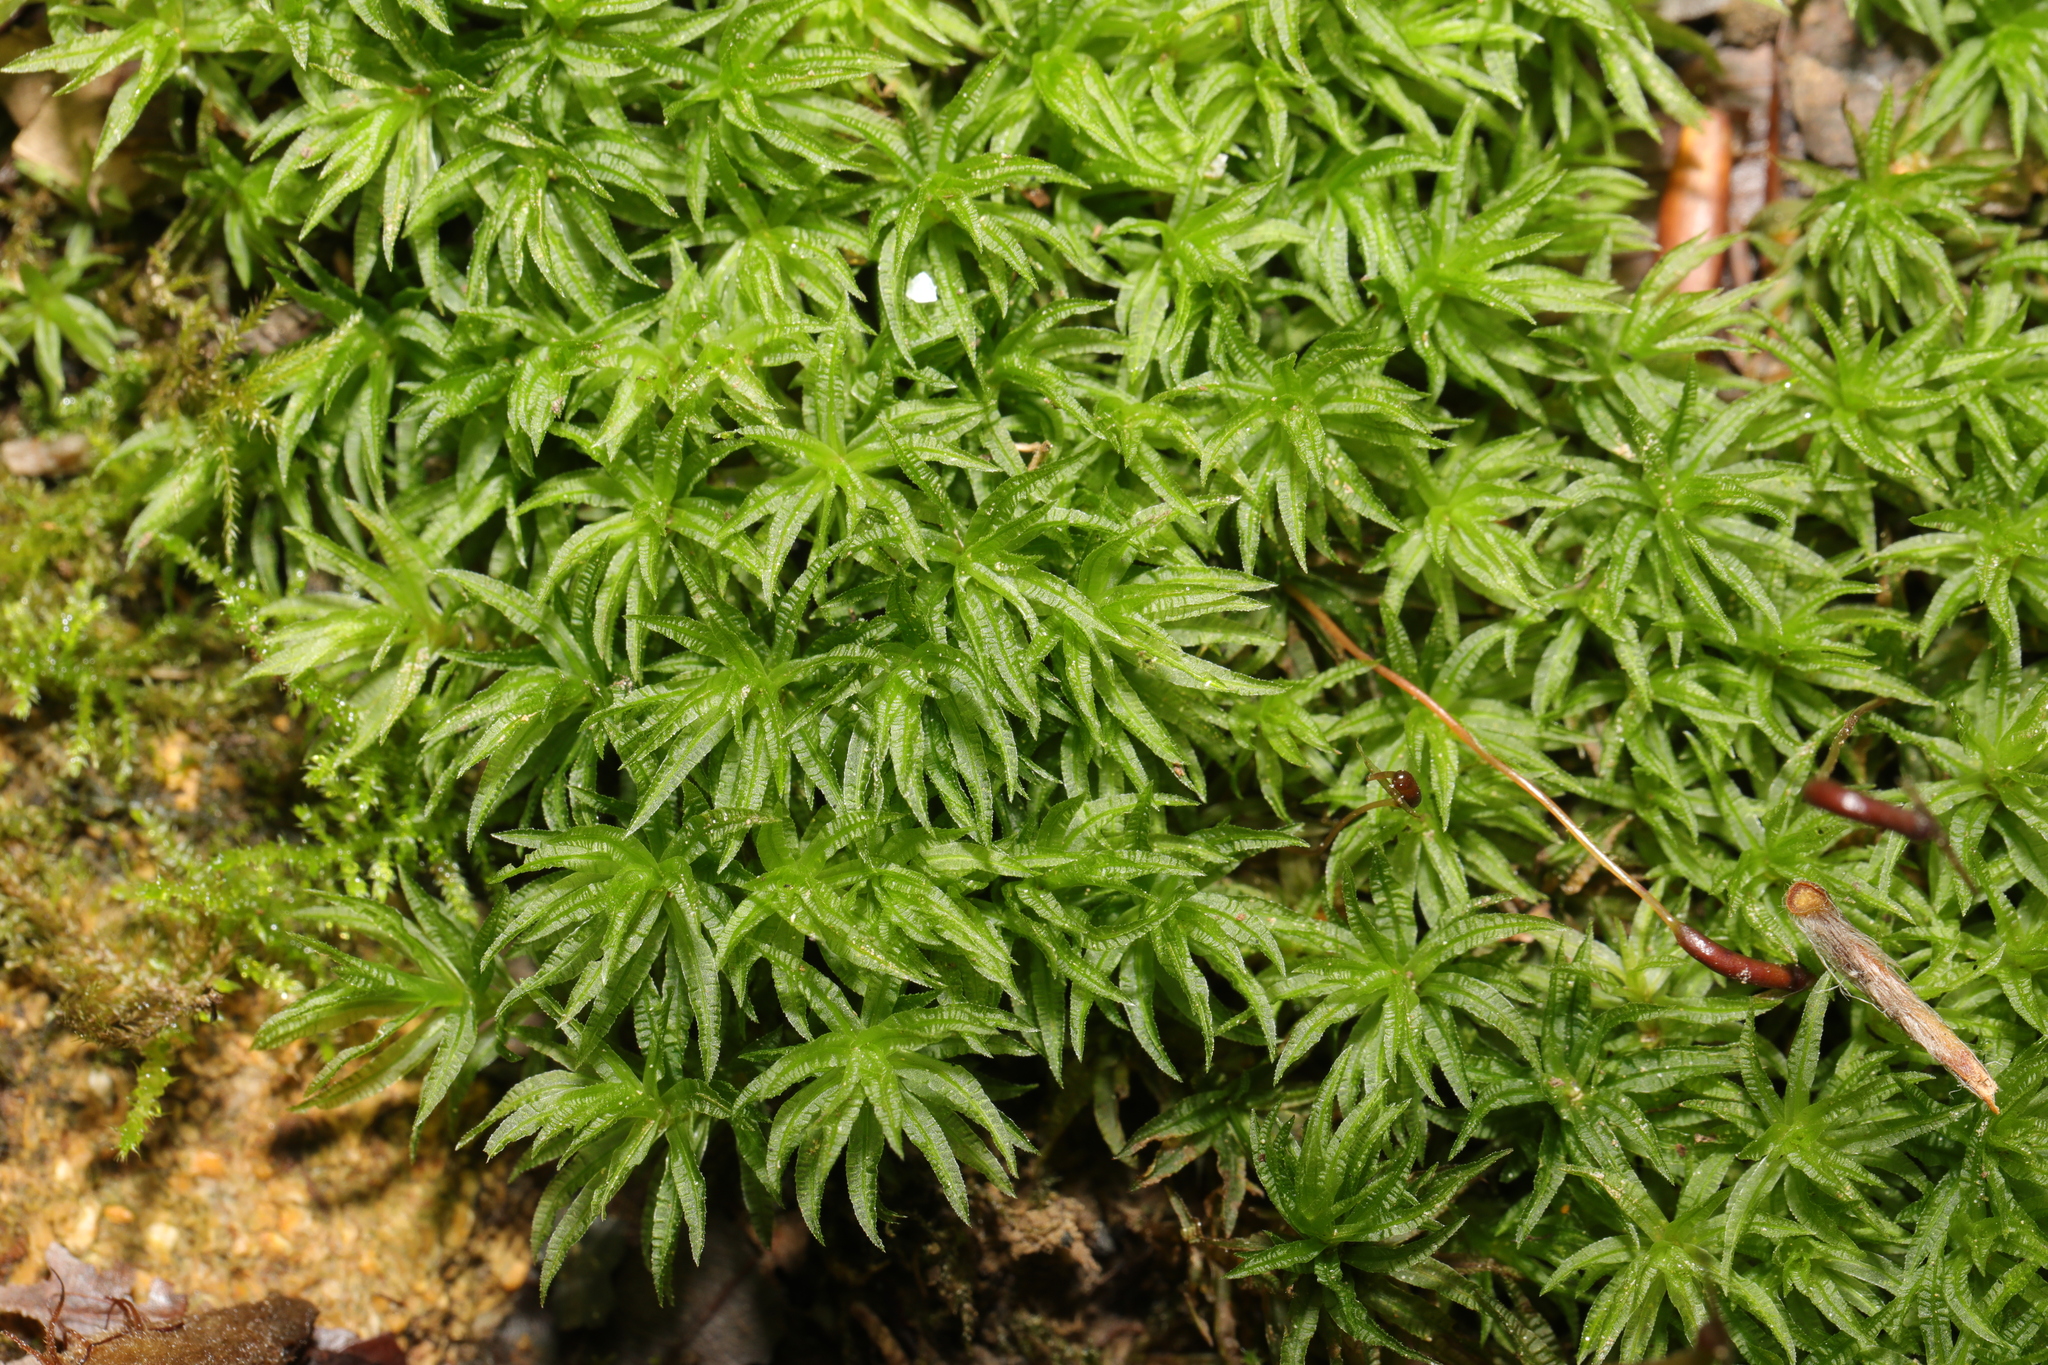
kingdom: Plantae
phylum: Bryophyta
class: Polytrichopsida
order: Polytrichales
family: Polytrichaceae
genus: Atrichum
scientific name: Atrichum undulatum
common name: Common smoothcap
